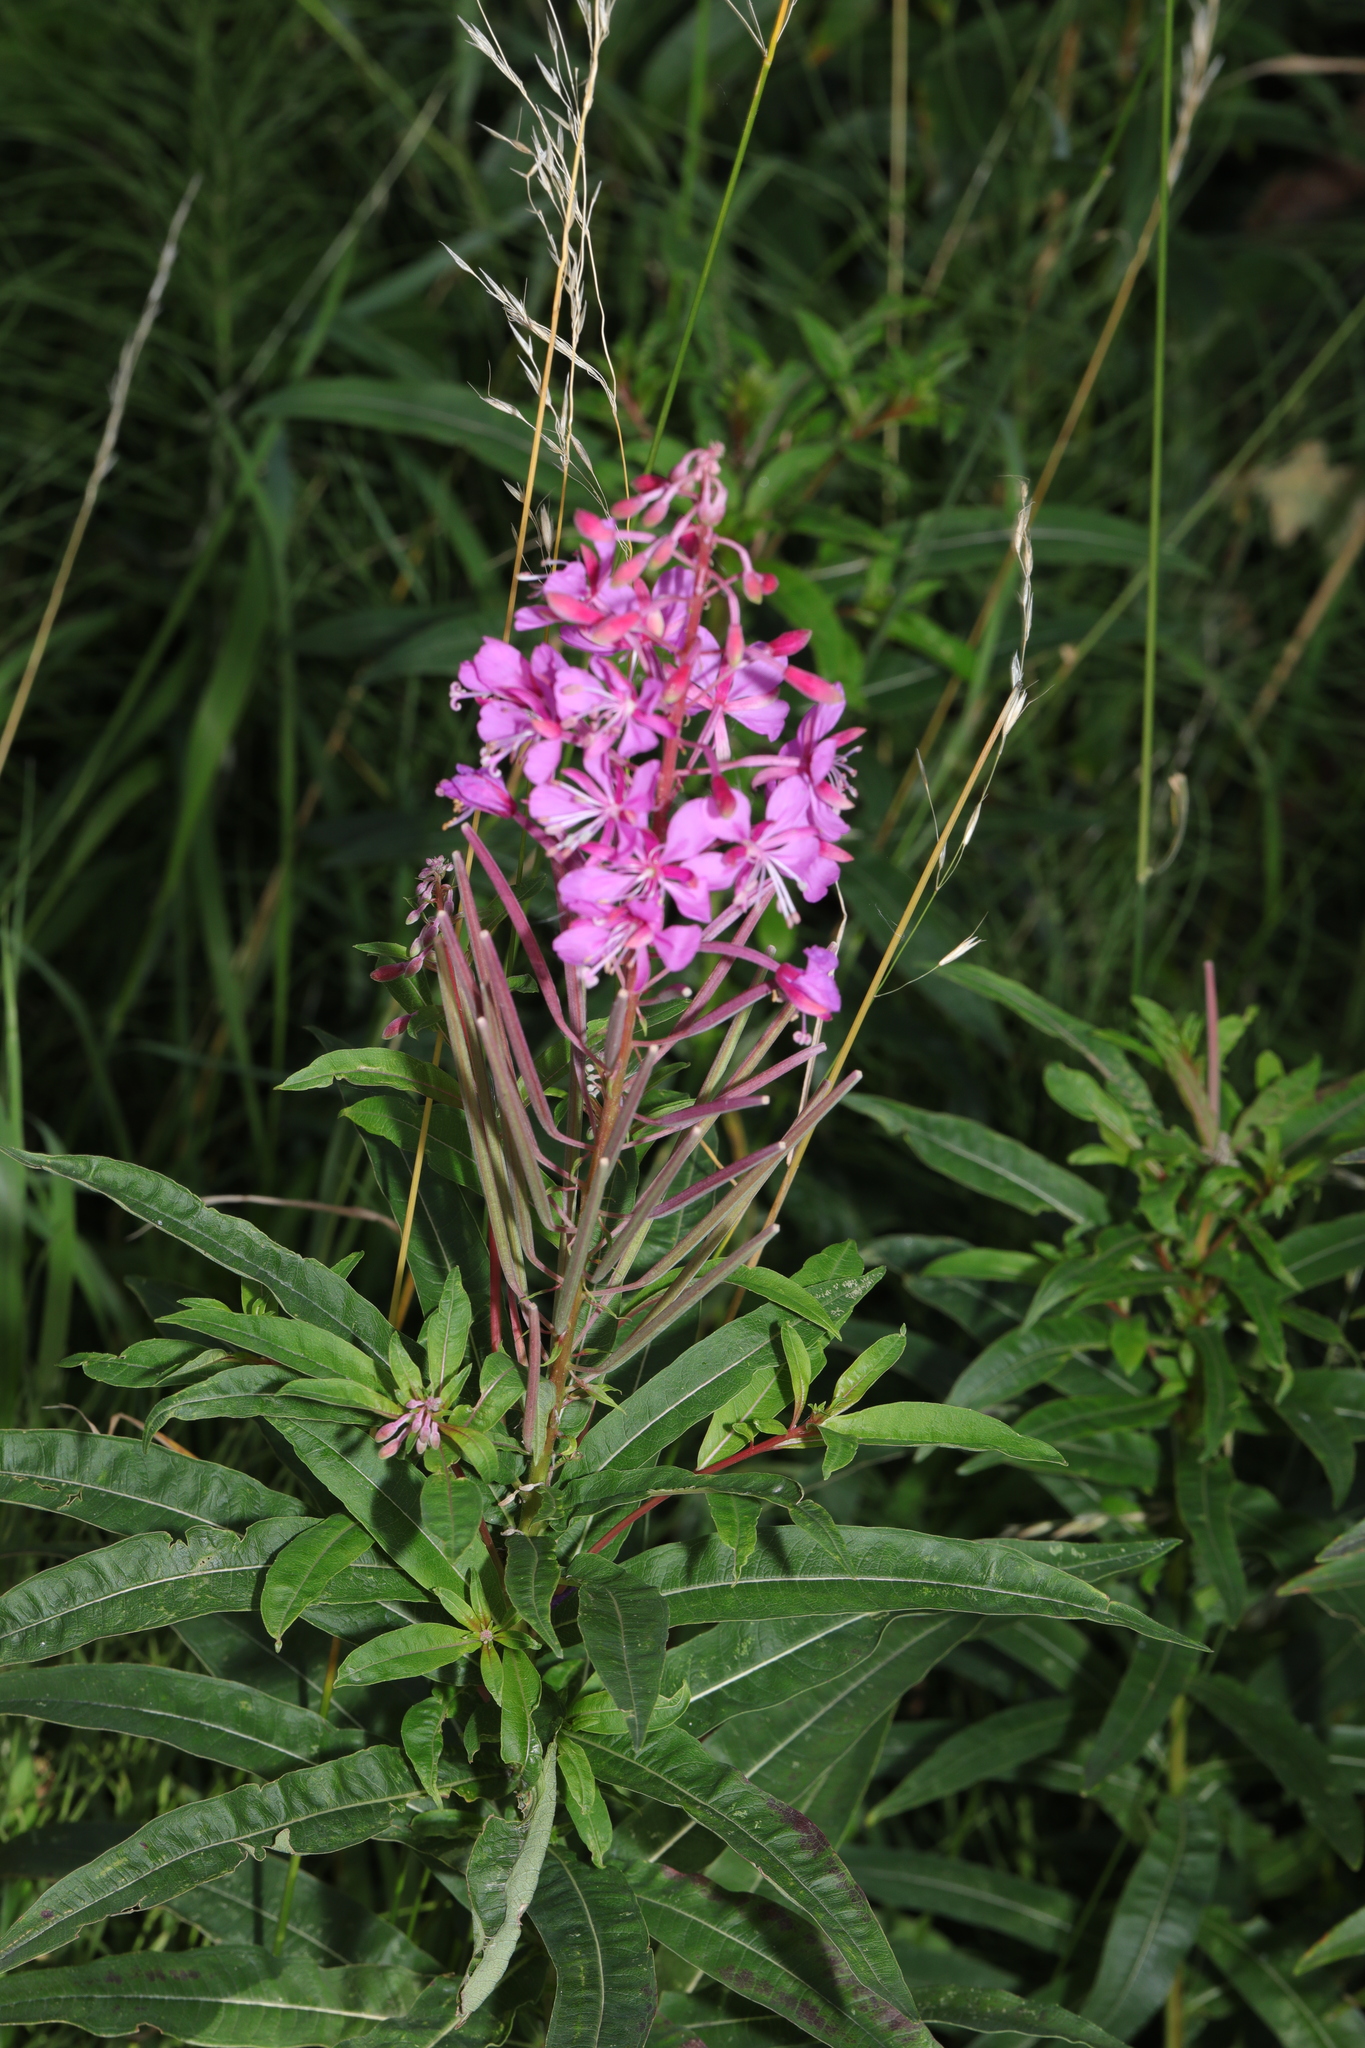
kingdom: Plantae
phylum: Tracheophyta
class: Magnoliopsida
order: Myrtales
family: Onagraceae
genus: Chamaenerion
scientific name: Chamaenerion angustifolium
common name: Fireweed
